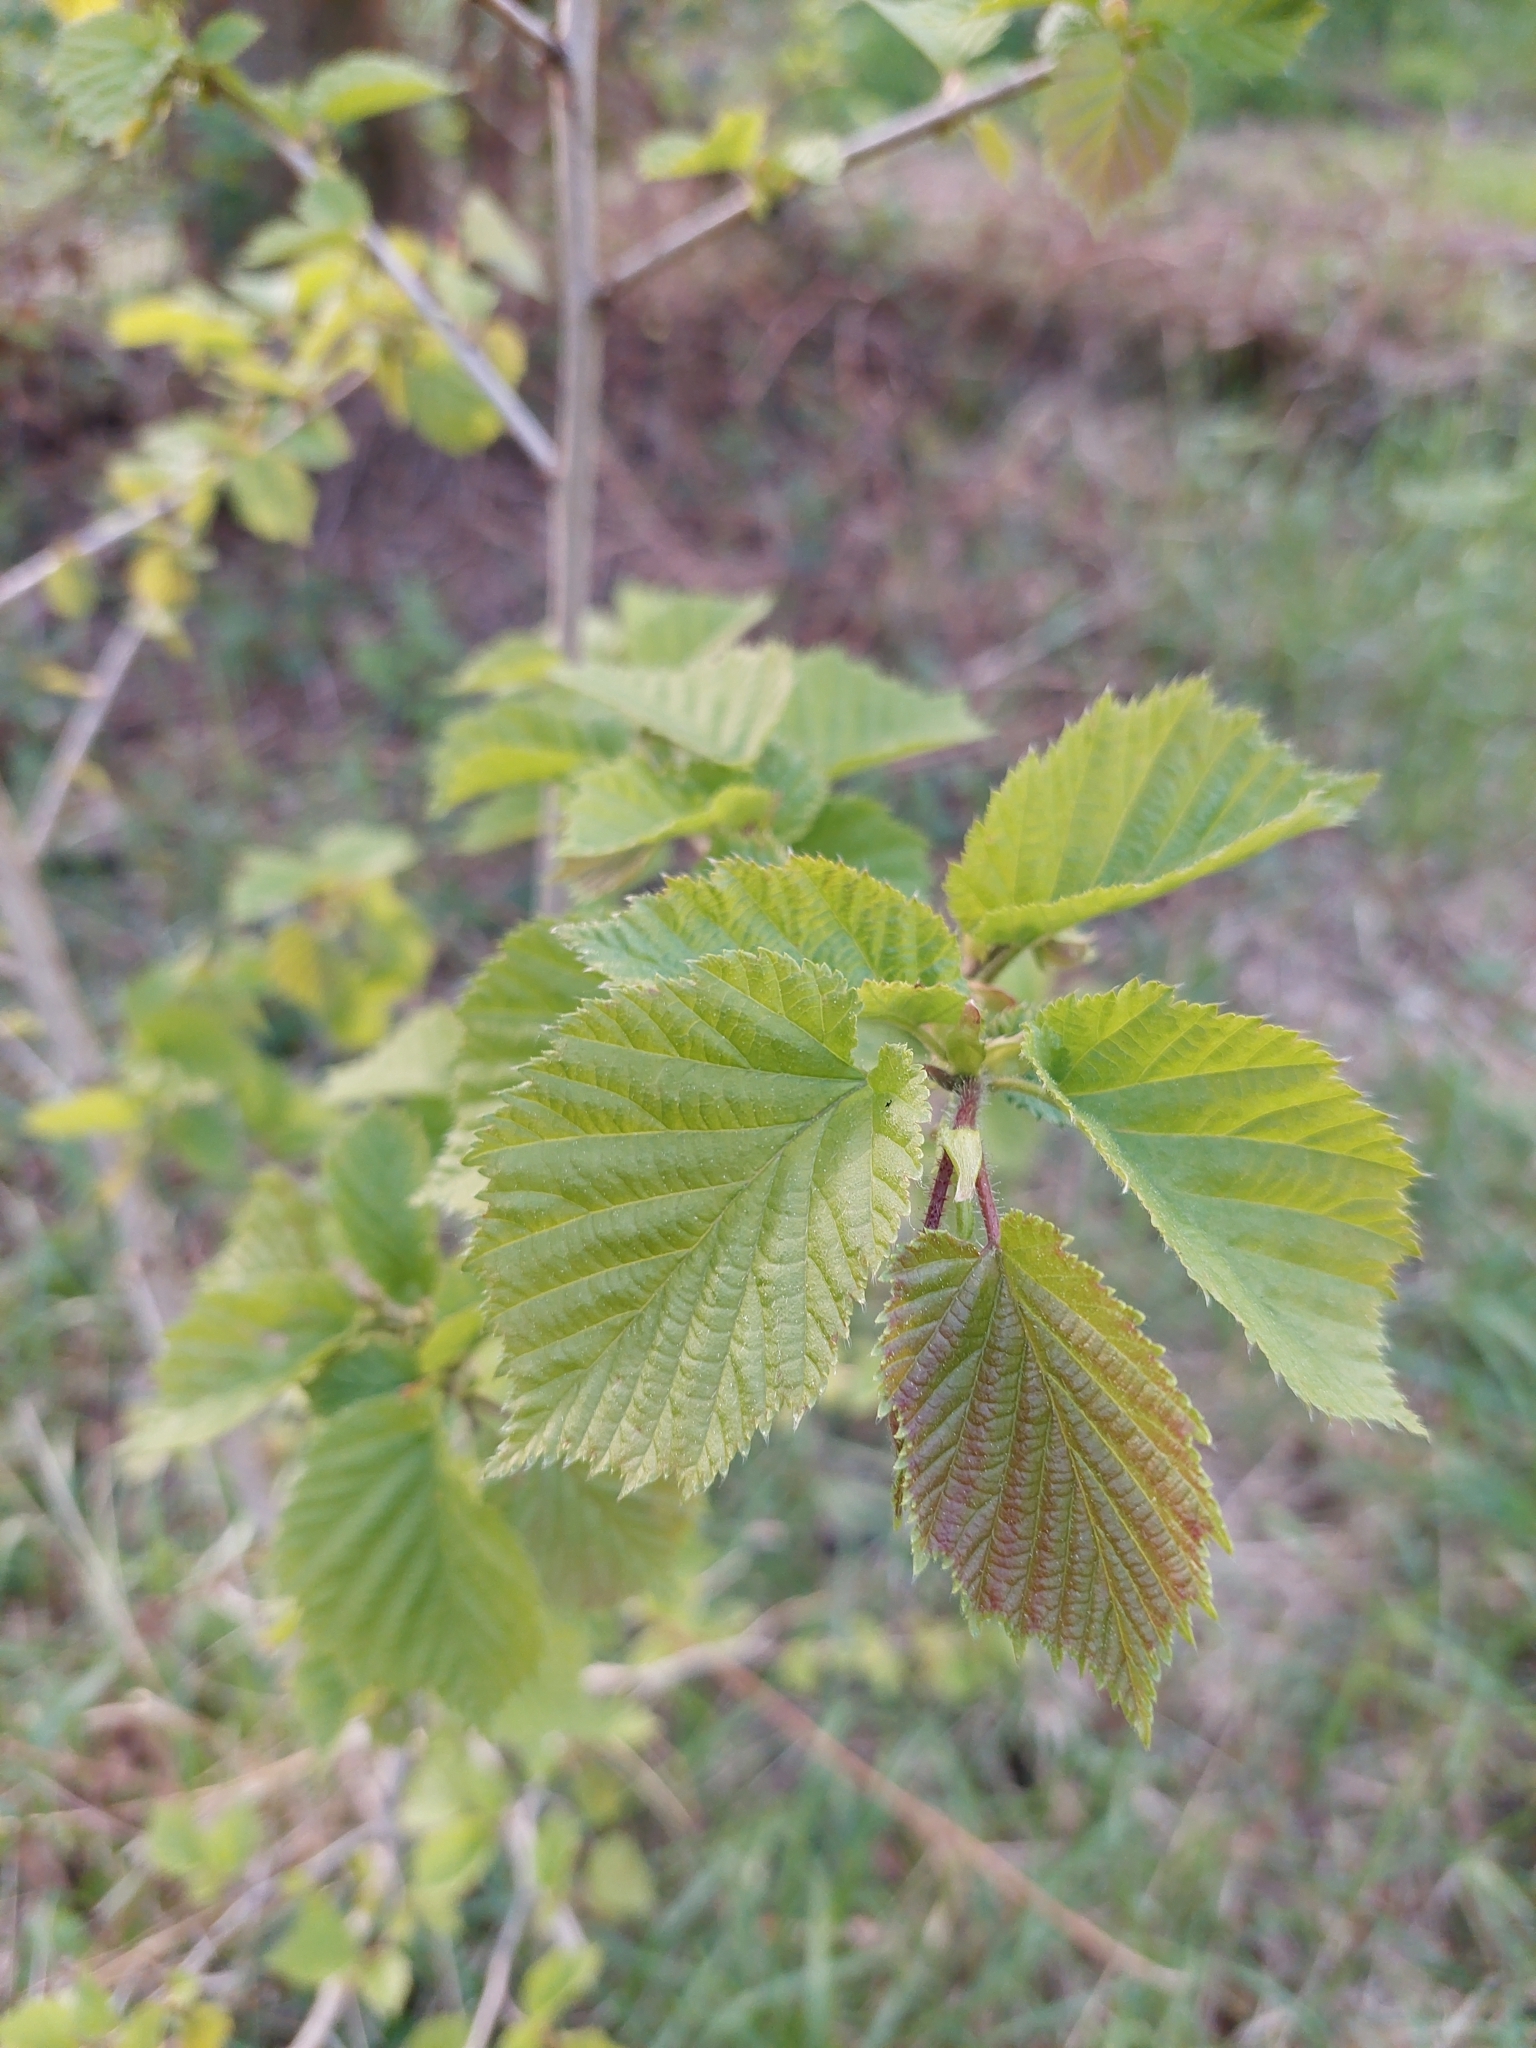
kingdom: Plantae
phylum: Tracheophyta
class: Magnoliopsida
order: Fagales
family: Betulaceae
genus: Corylus
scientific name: Corylus colurna
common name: Turkish hazel
